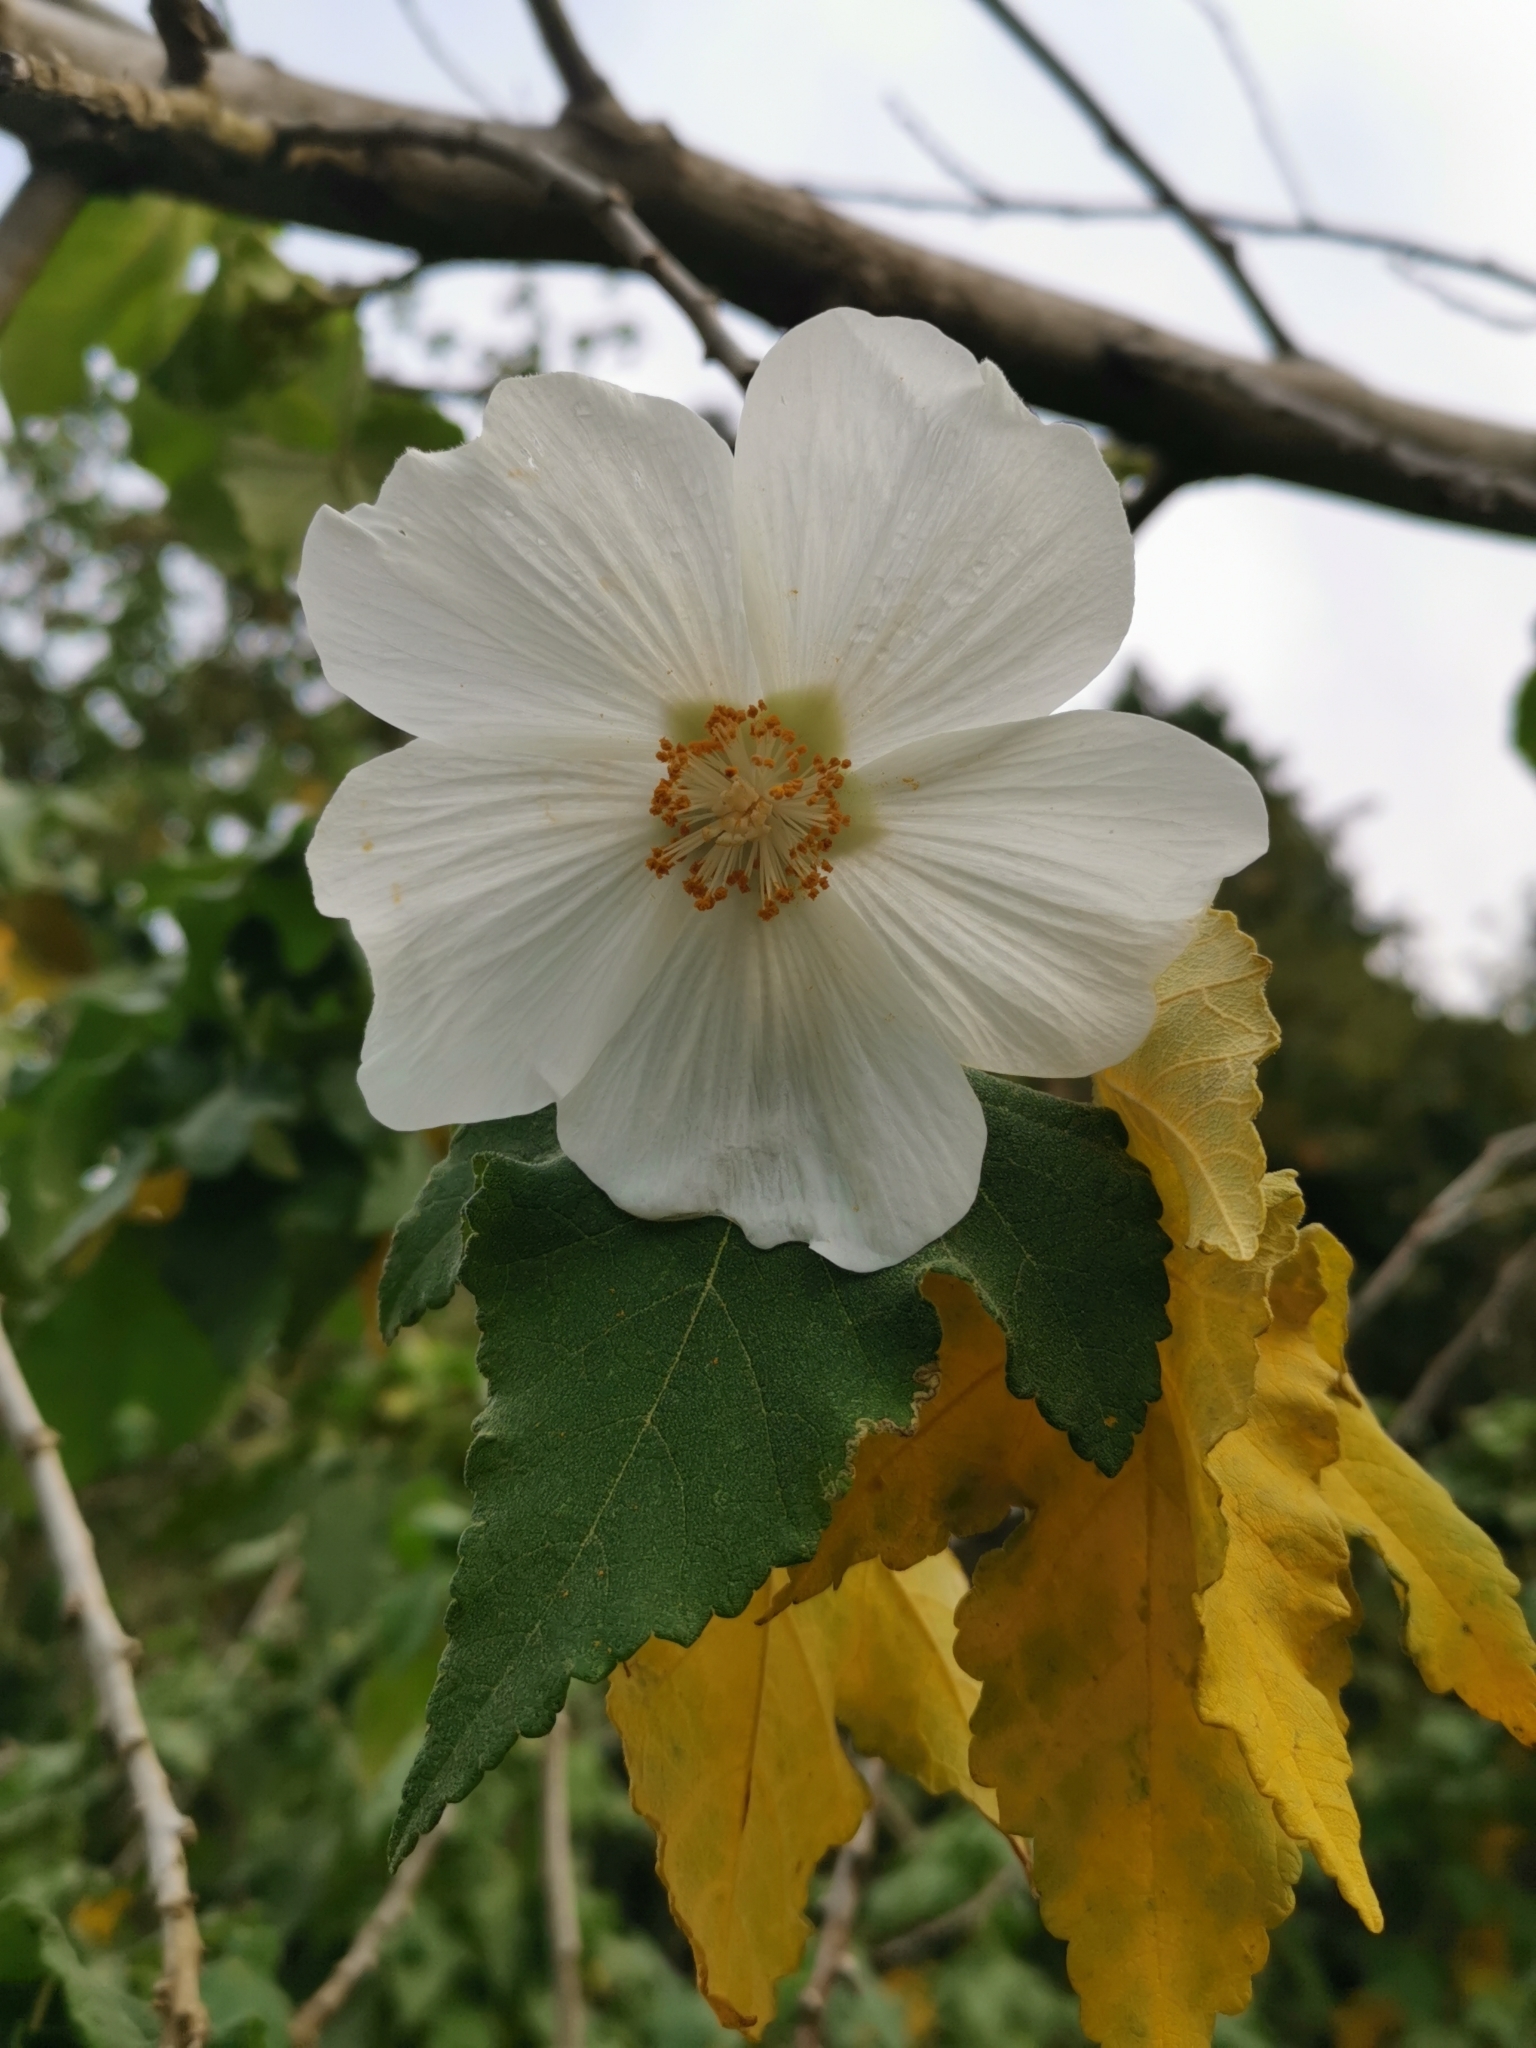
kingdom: Plantae
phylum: Tracheophyta
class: Magnoliopsida
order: Malvales
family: Malvaceae
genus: Corynabutilon
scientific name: Corynabutilon vitifolium
